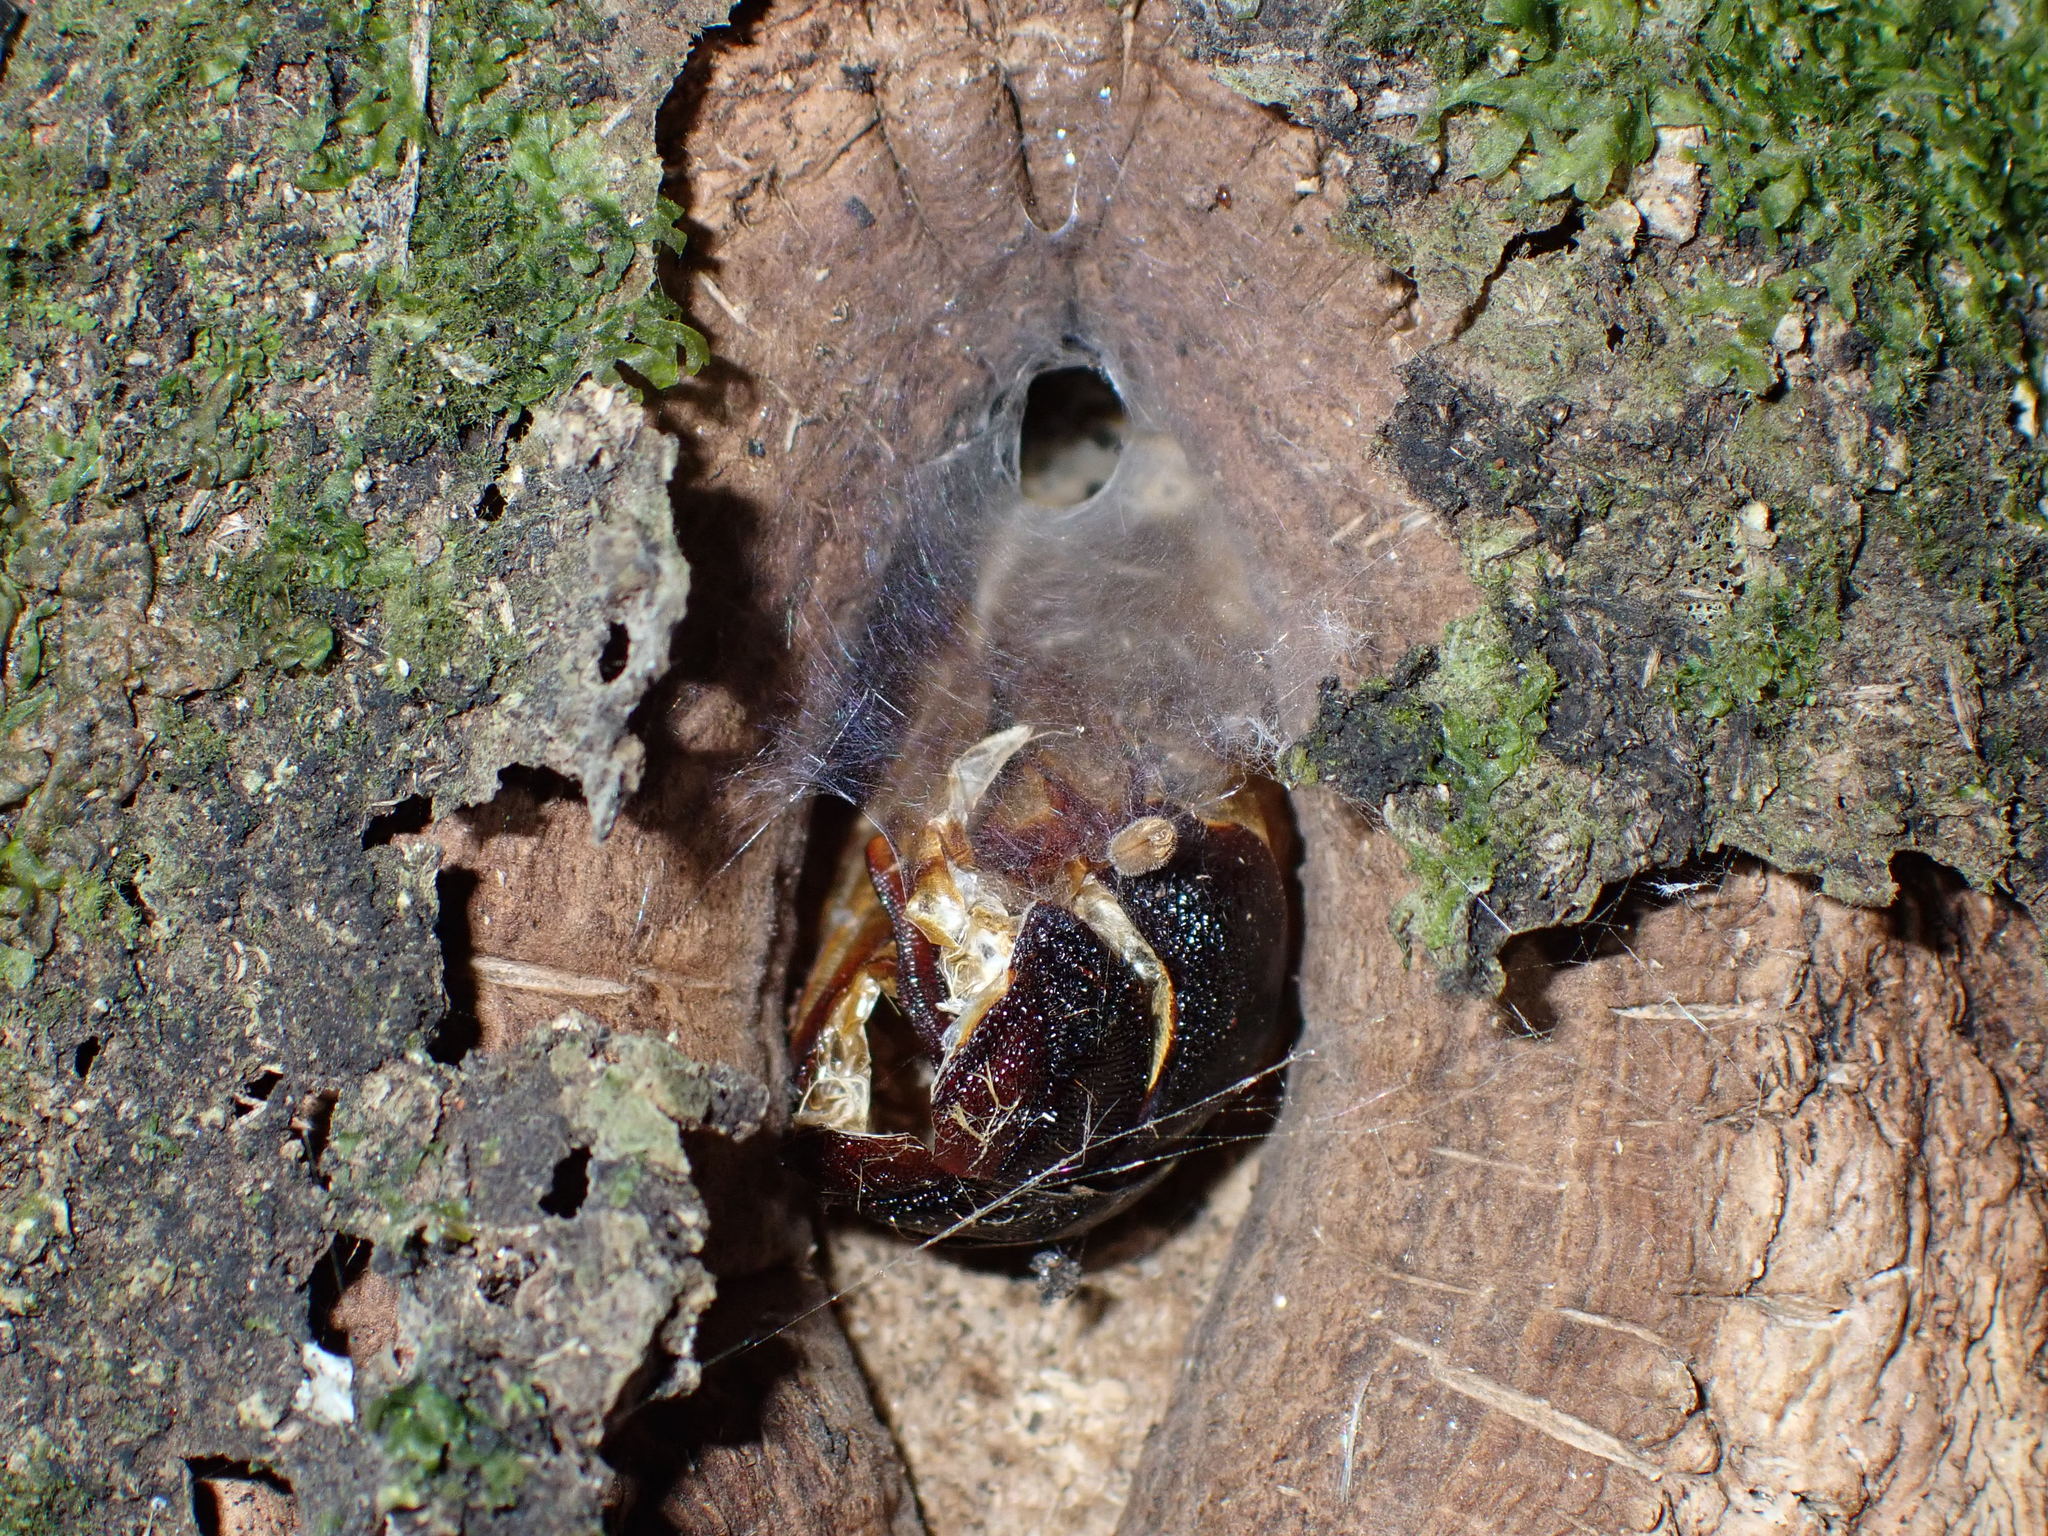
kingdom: Animalia
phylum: Arthropoda
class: Insecta
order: Lepidoptera
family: Hepialidae
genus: Aenetus
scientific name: Aenetus virescens
